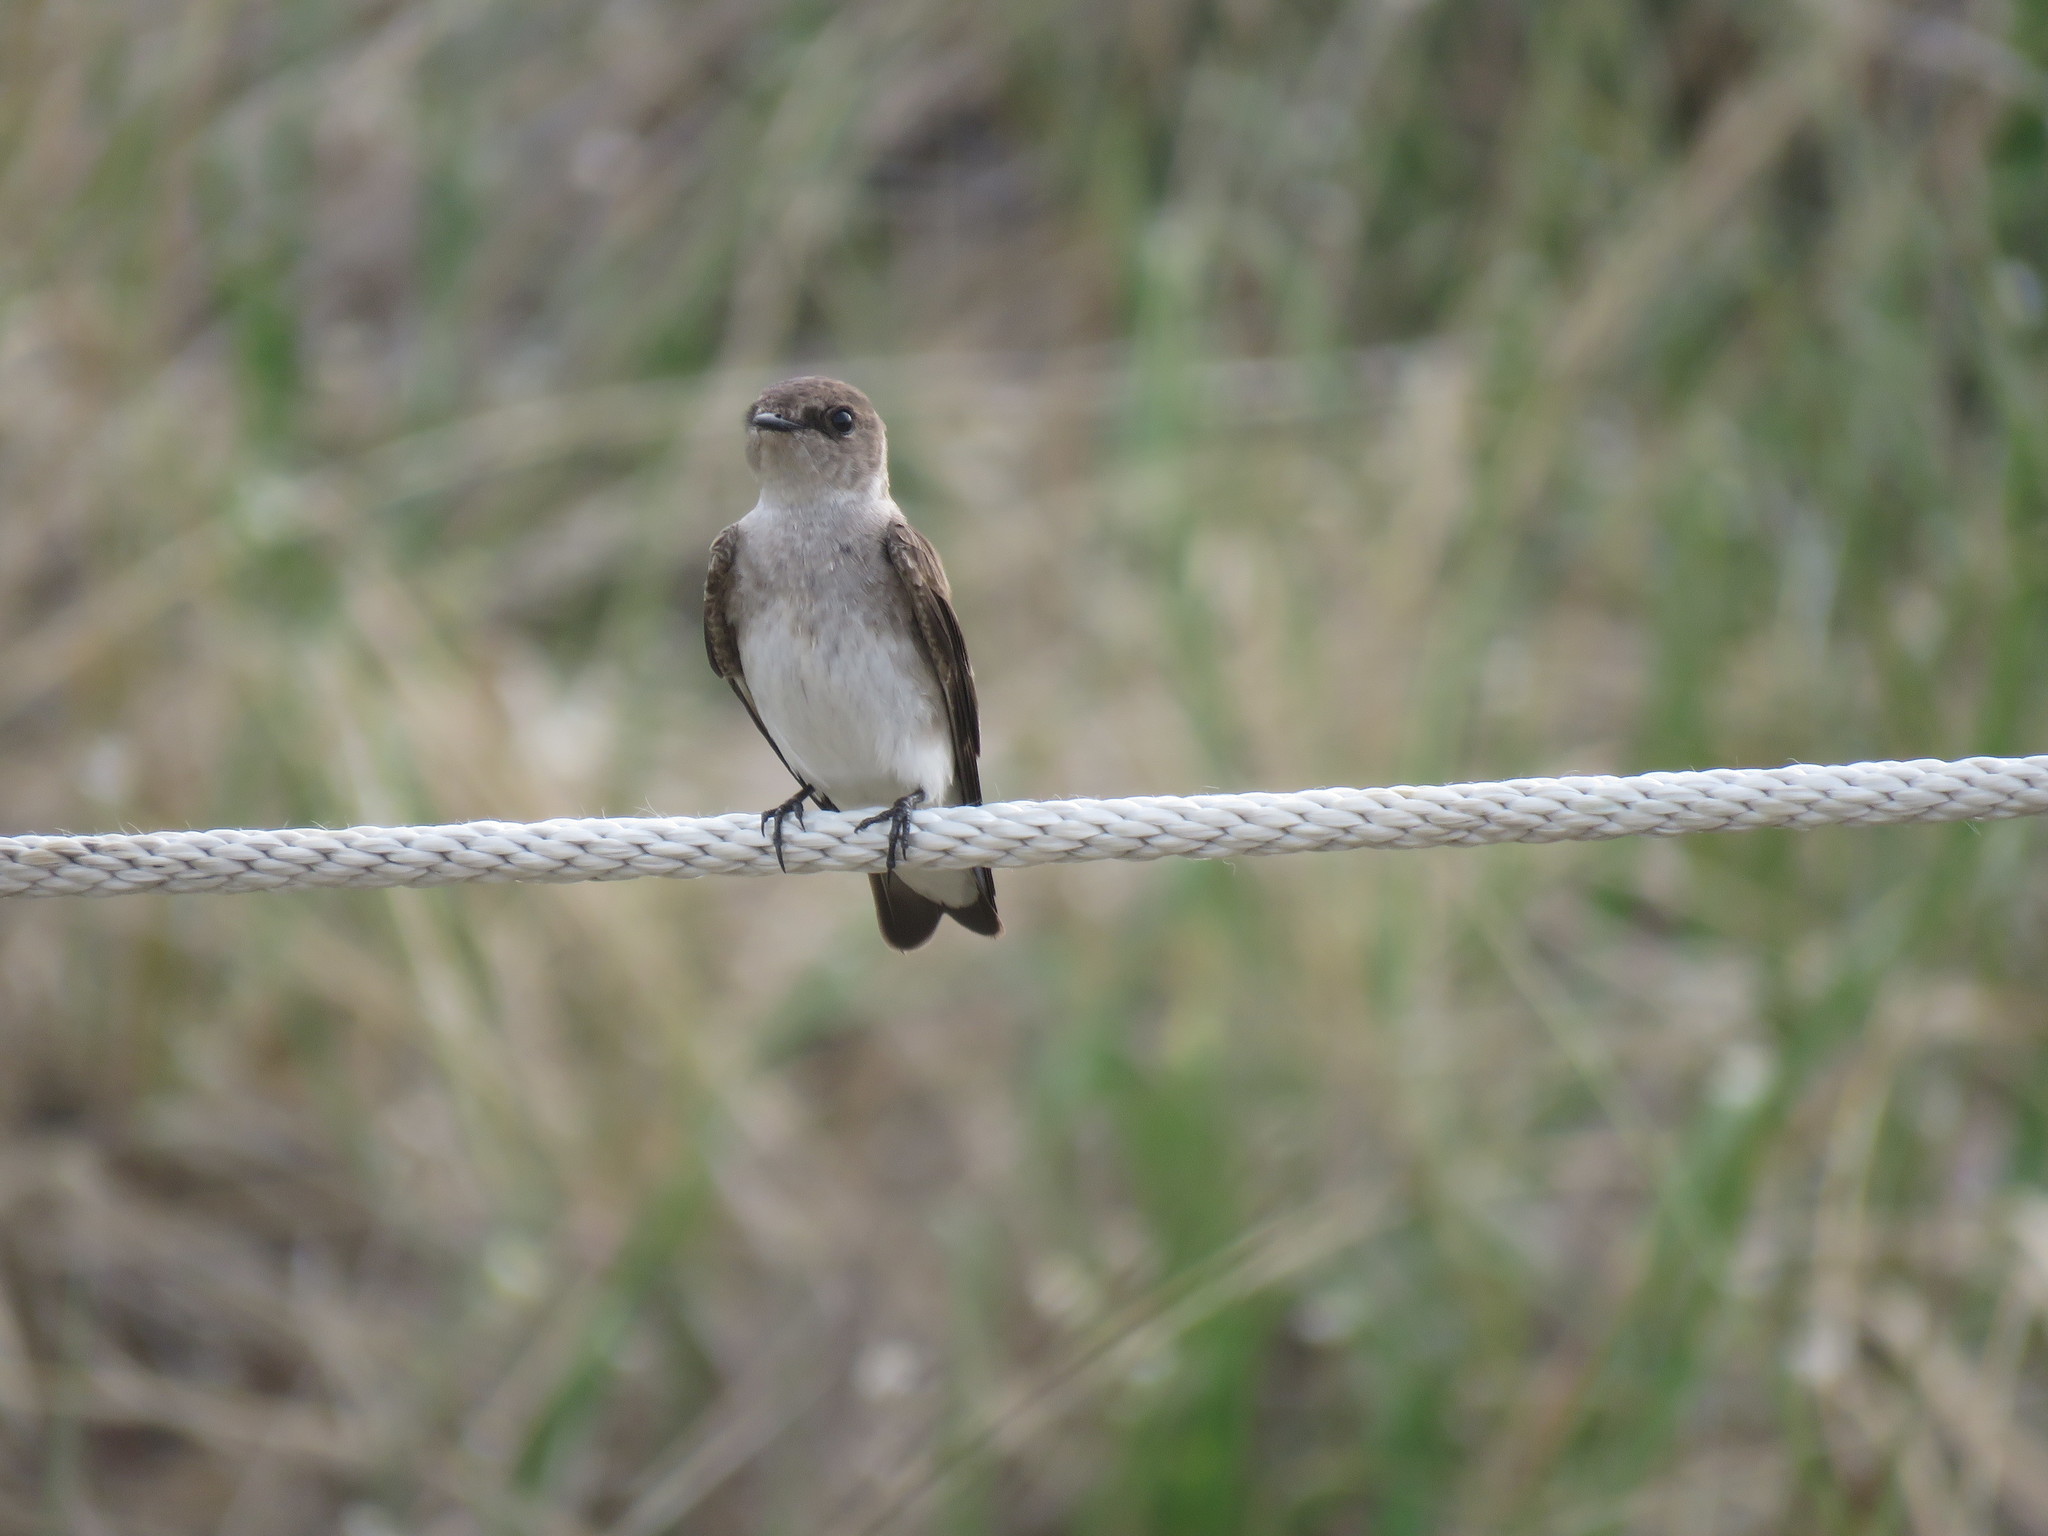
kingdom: Animalia
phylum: Chordata
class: Aves
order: Passeriformes
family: Hirundinidae
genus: Stelgidopteryx
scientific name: Stelgidopteryx serripennis
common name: Northern rough-winged swallow
